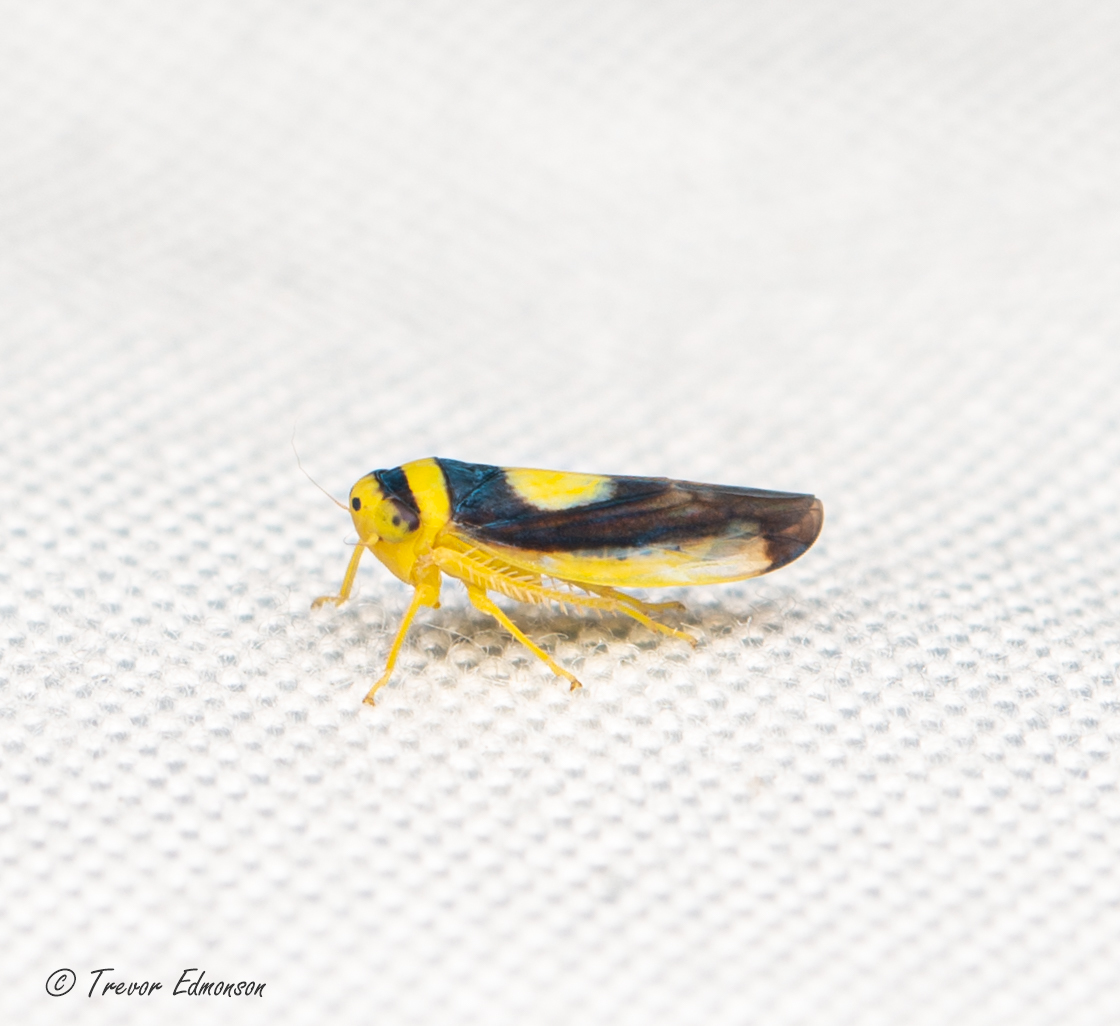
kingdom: Animalia
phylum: Arthropoda
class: Insecta
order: Hemiptera
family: Cicadellidae
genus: Colladonus
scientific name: Colladonus clitellarius
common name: The saddleback leafhopper
